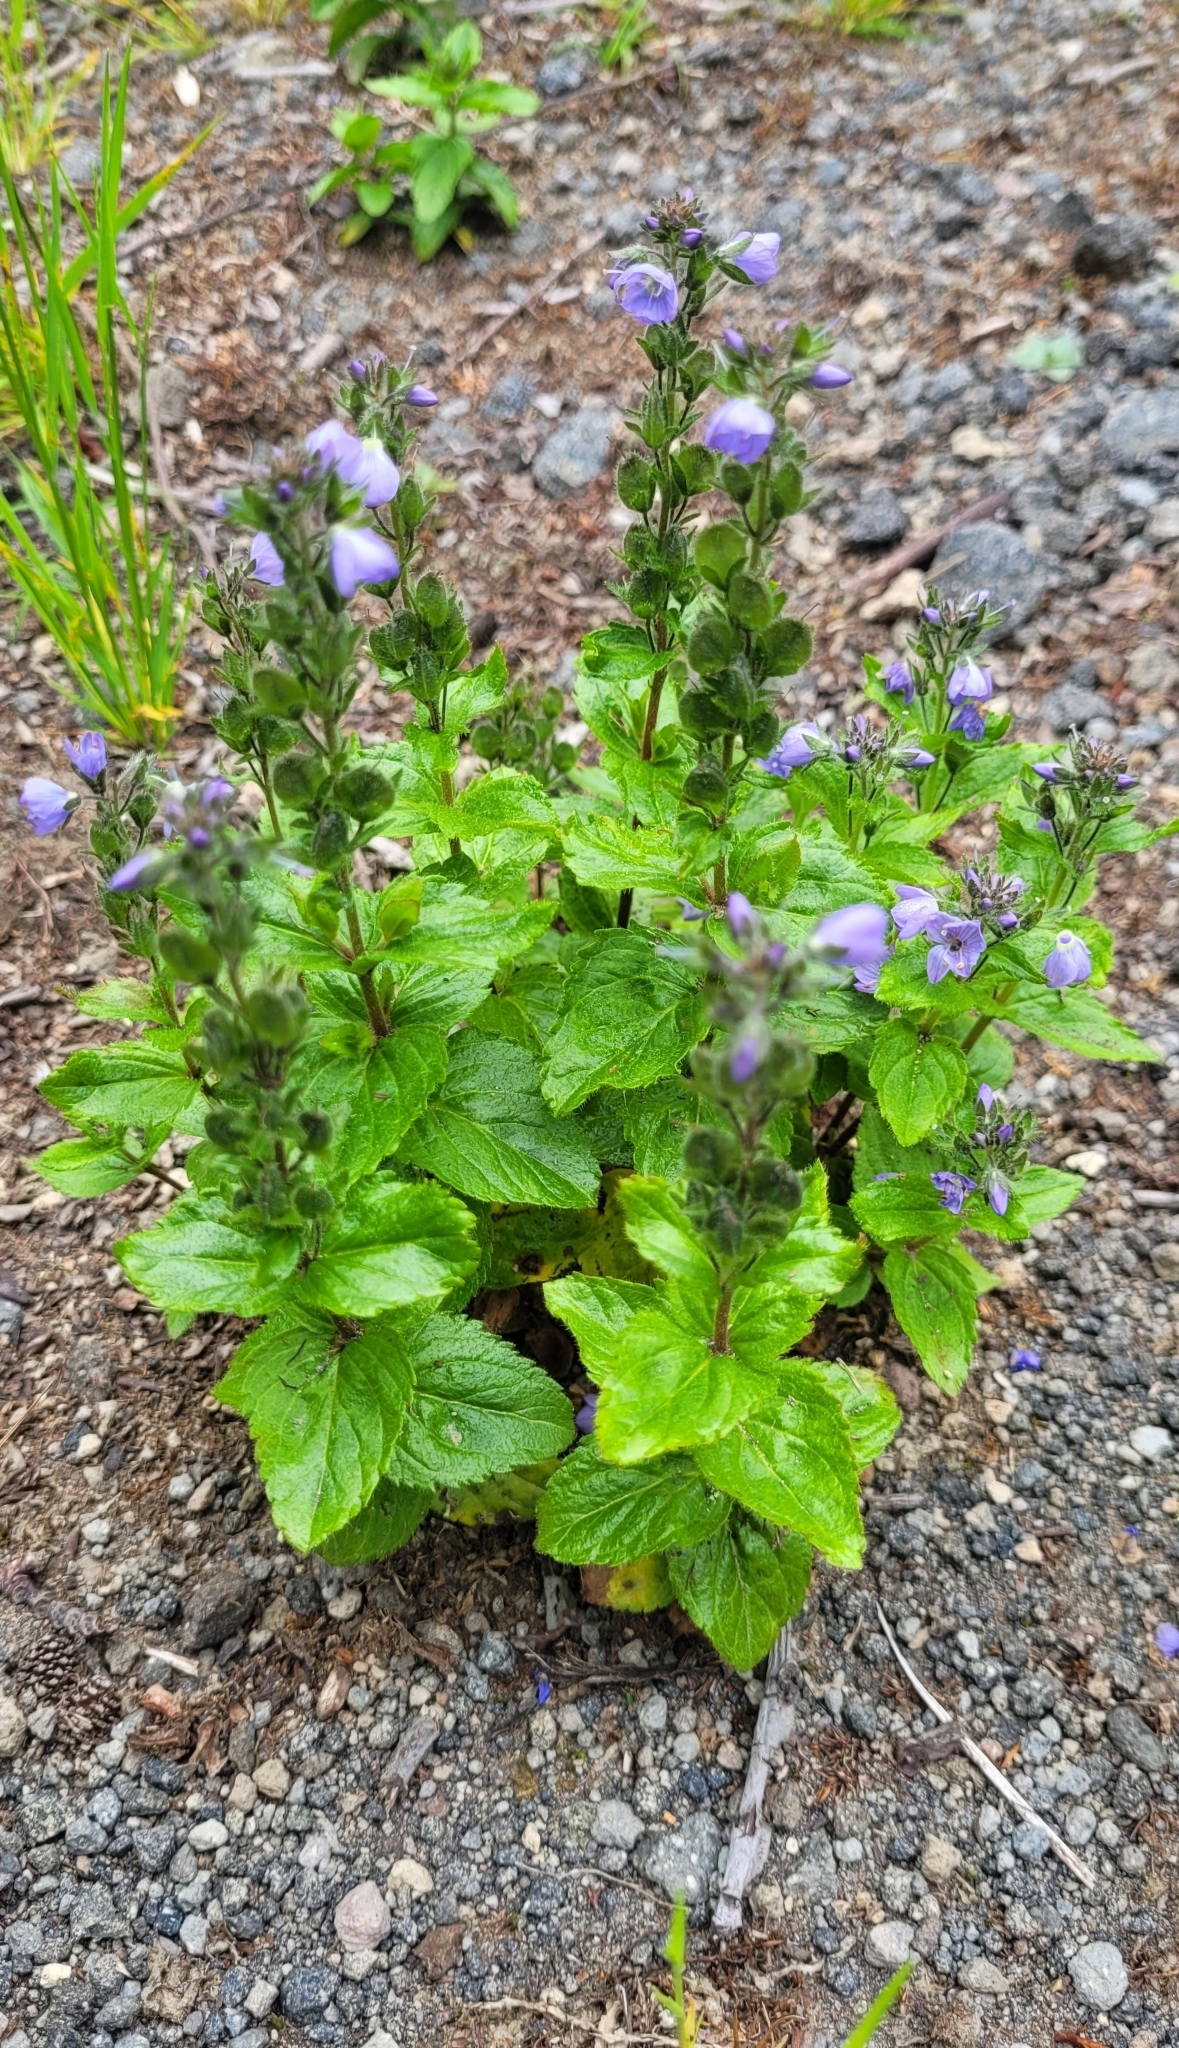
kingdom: Plantae
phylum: Tracheophyta
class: Magnoliopsida
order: Lamiales
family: Plantaginaceae
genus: Veronica
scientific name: Veronica stelleri
